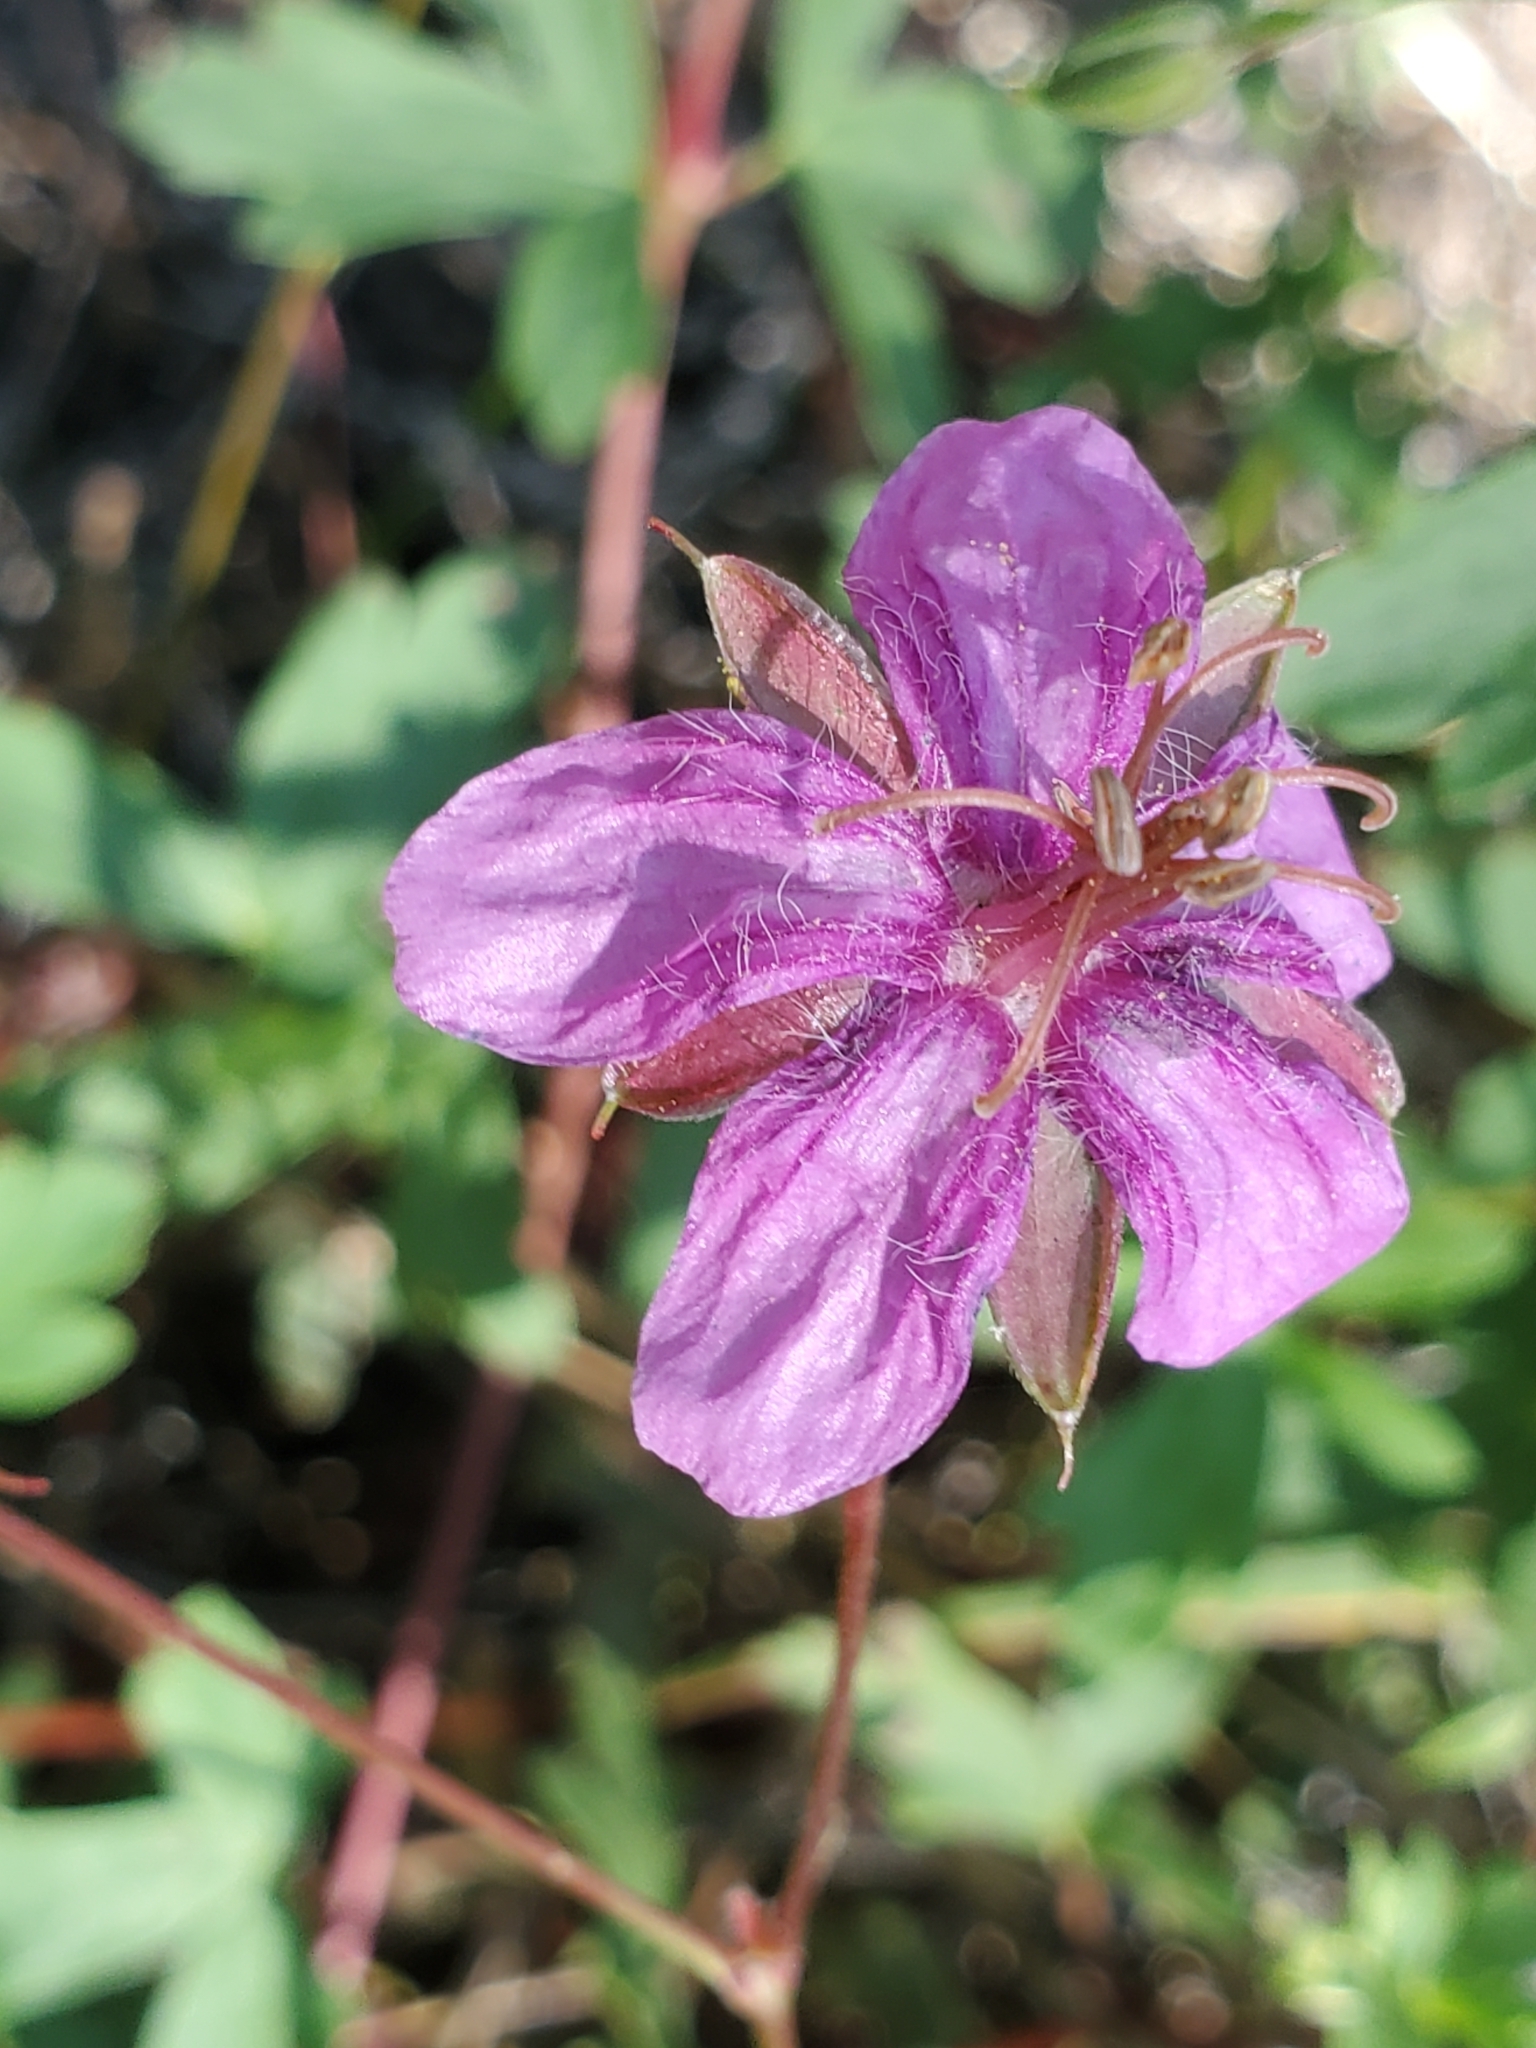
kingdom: Plantae
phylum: Tracheophyta
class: Magnoliopsida
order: Geraniales
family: Geraniaceae
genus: Geranium
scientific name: Geranium caespitosum
